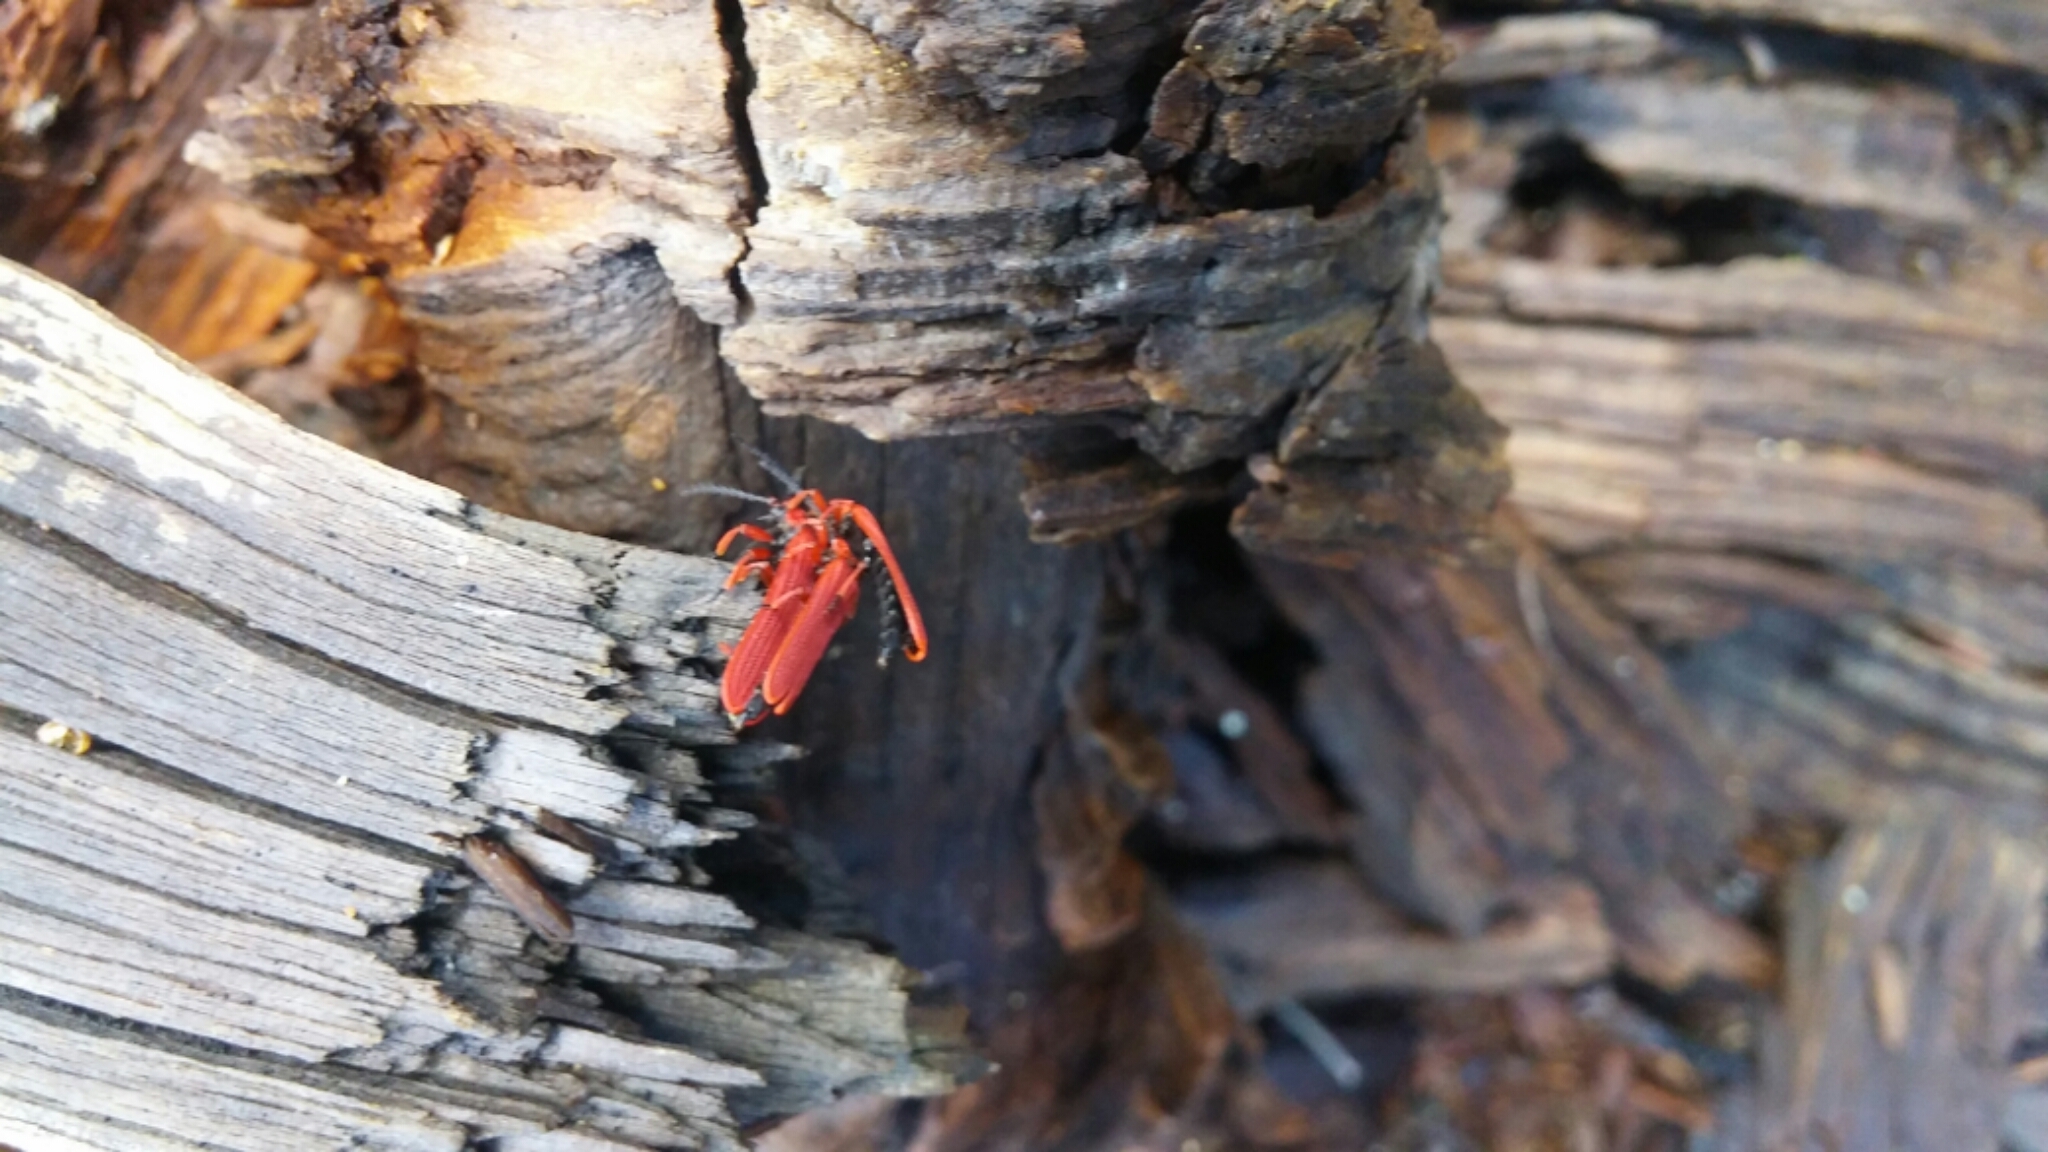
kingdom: Animalia
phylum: Arthropoda
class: Insecta
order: Coleoptera
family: Lycidae
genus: Dictyoptera
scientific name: Dictyoptera simplicipes
